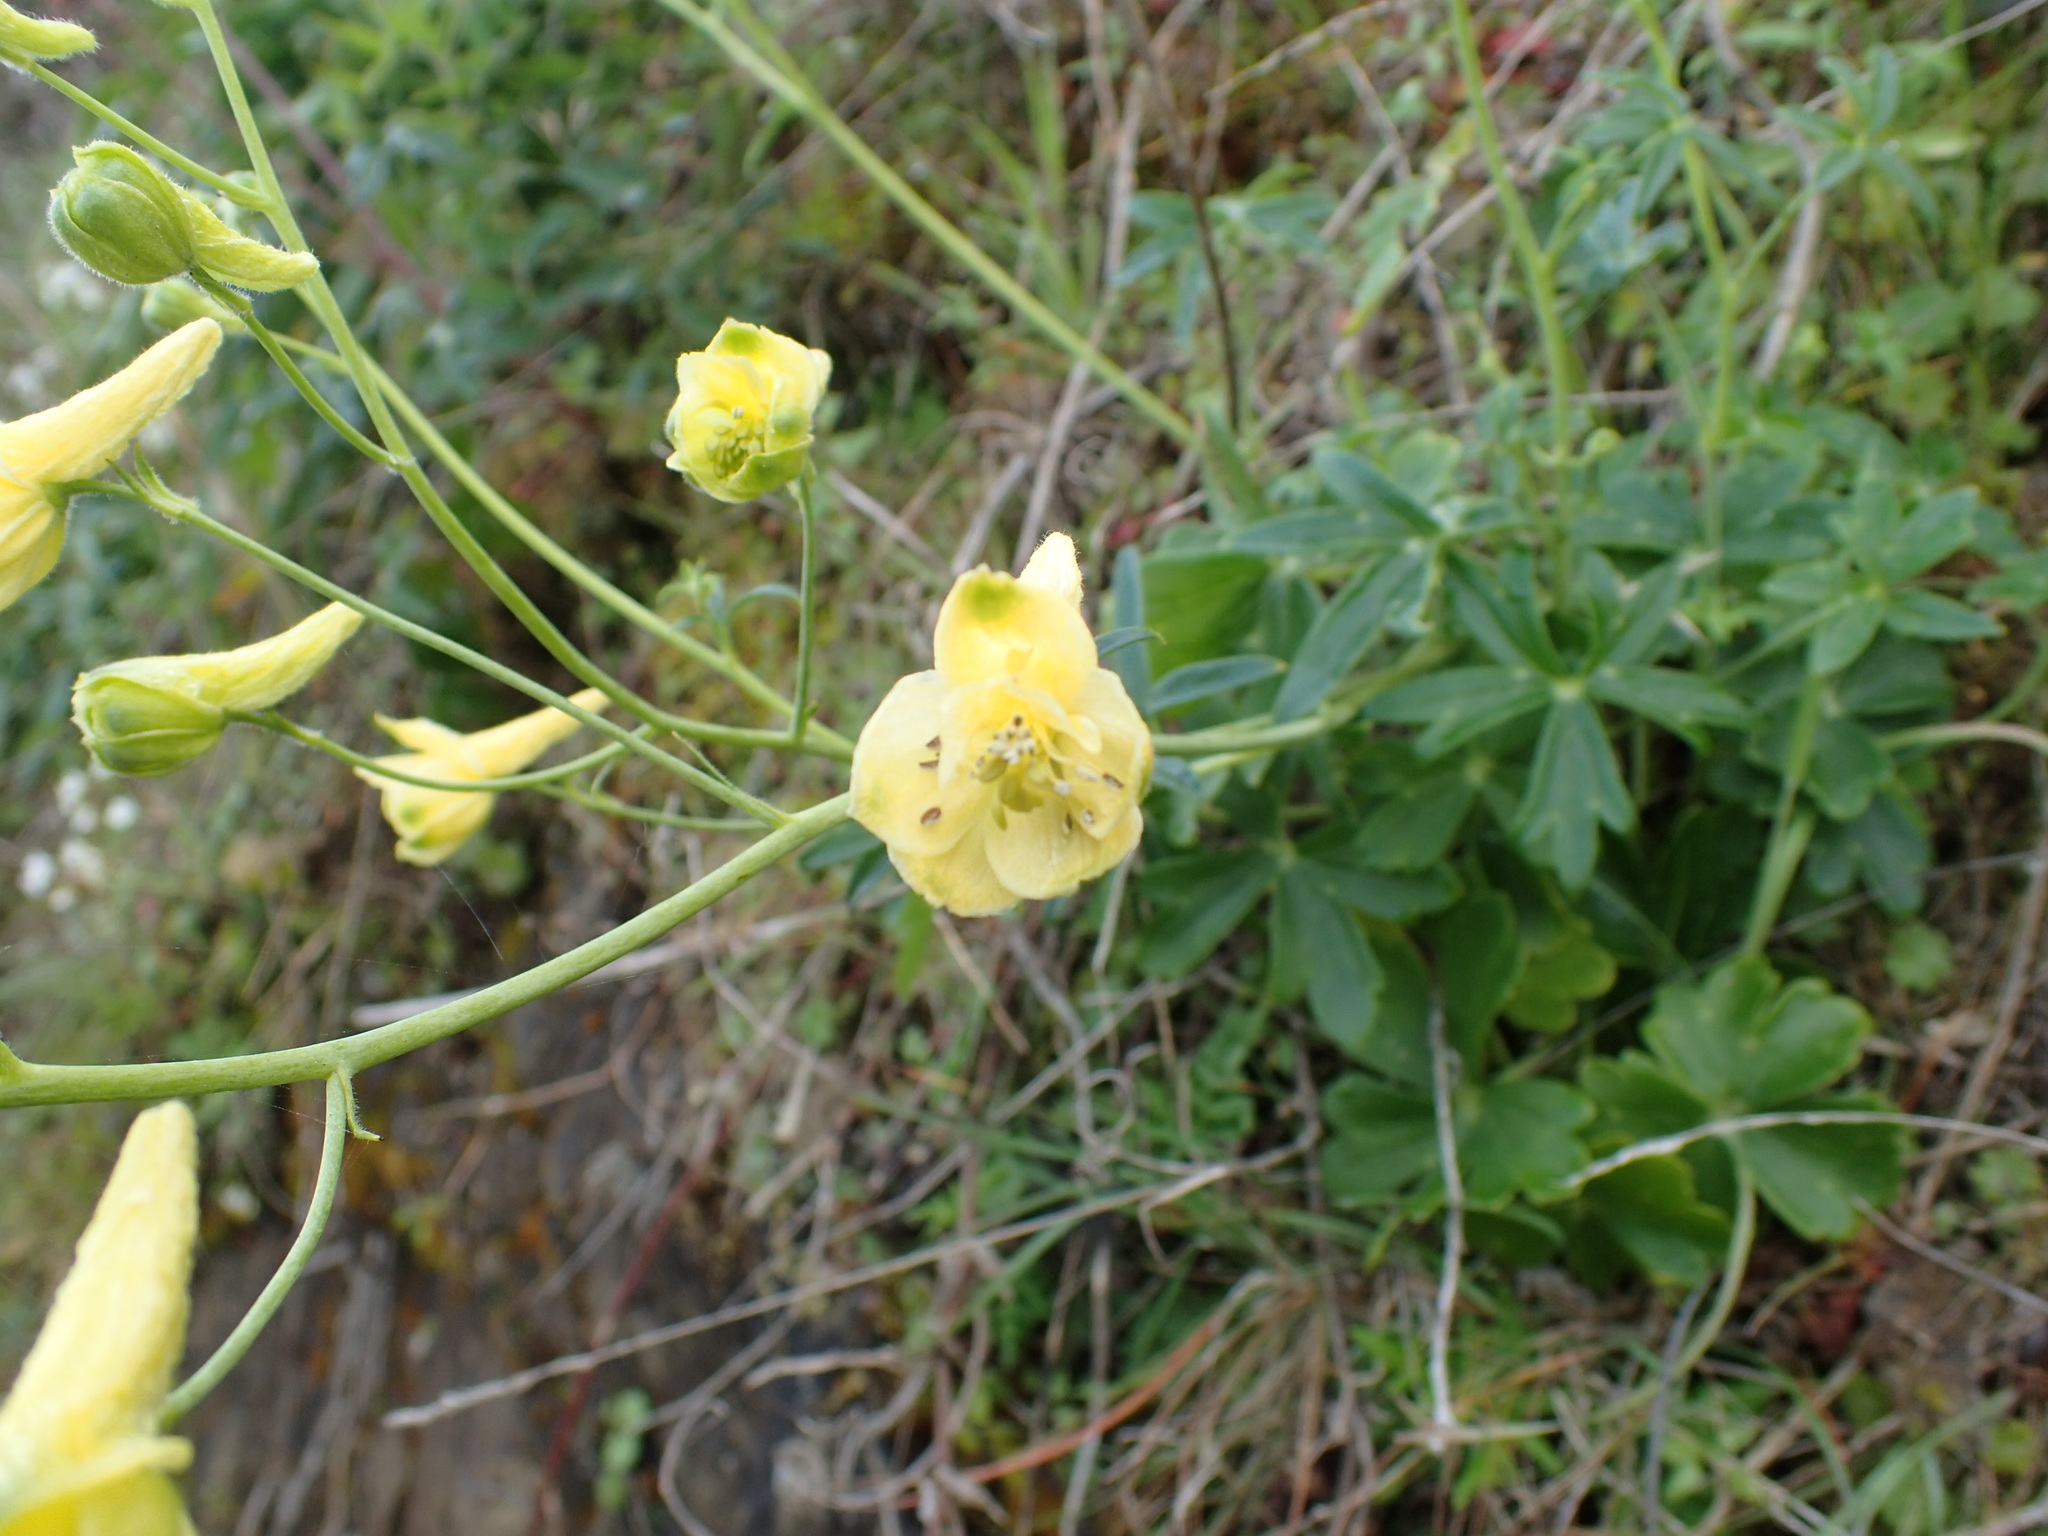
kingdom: Plantae
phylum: Tracheophyta
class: Magnoliopsida
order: Ranunculales
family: Ranunculaceae
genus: Delphinium
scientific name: Delphinium luteum
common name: Yellow larkspur
